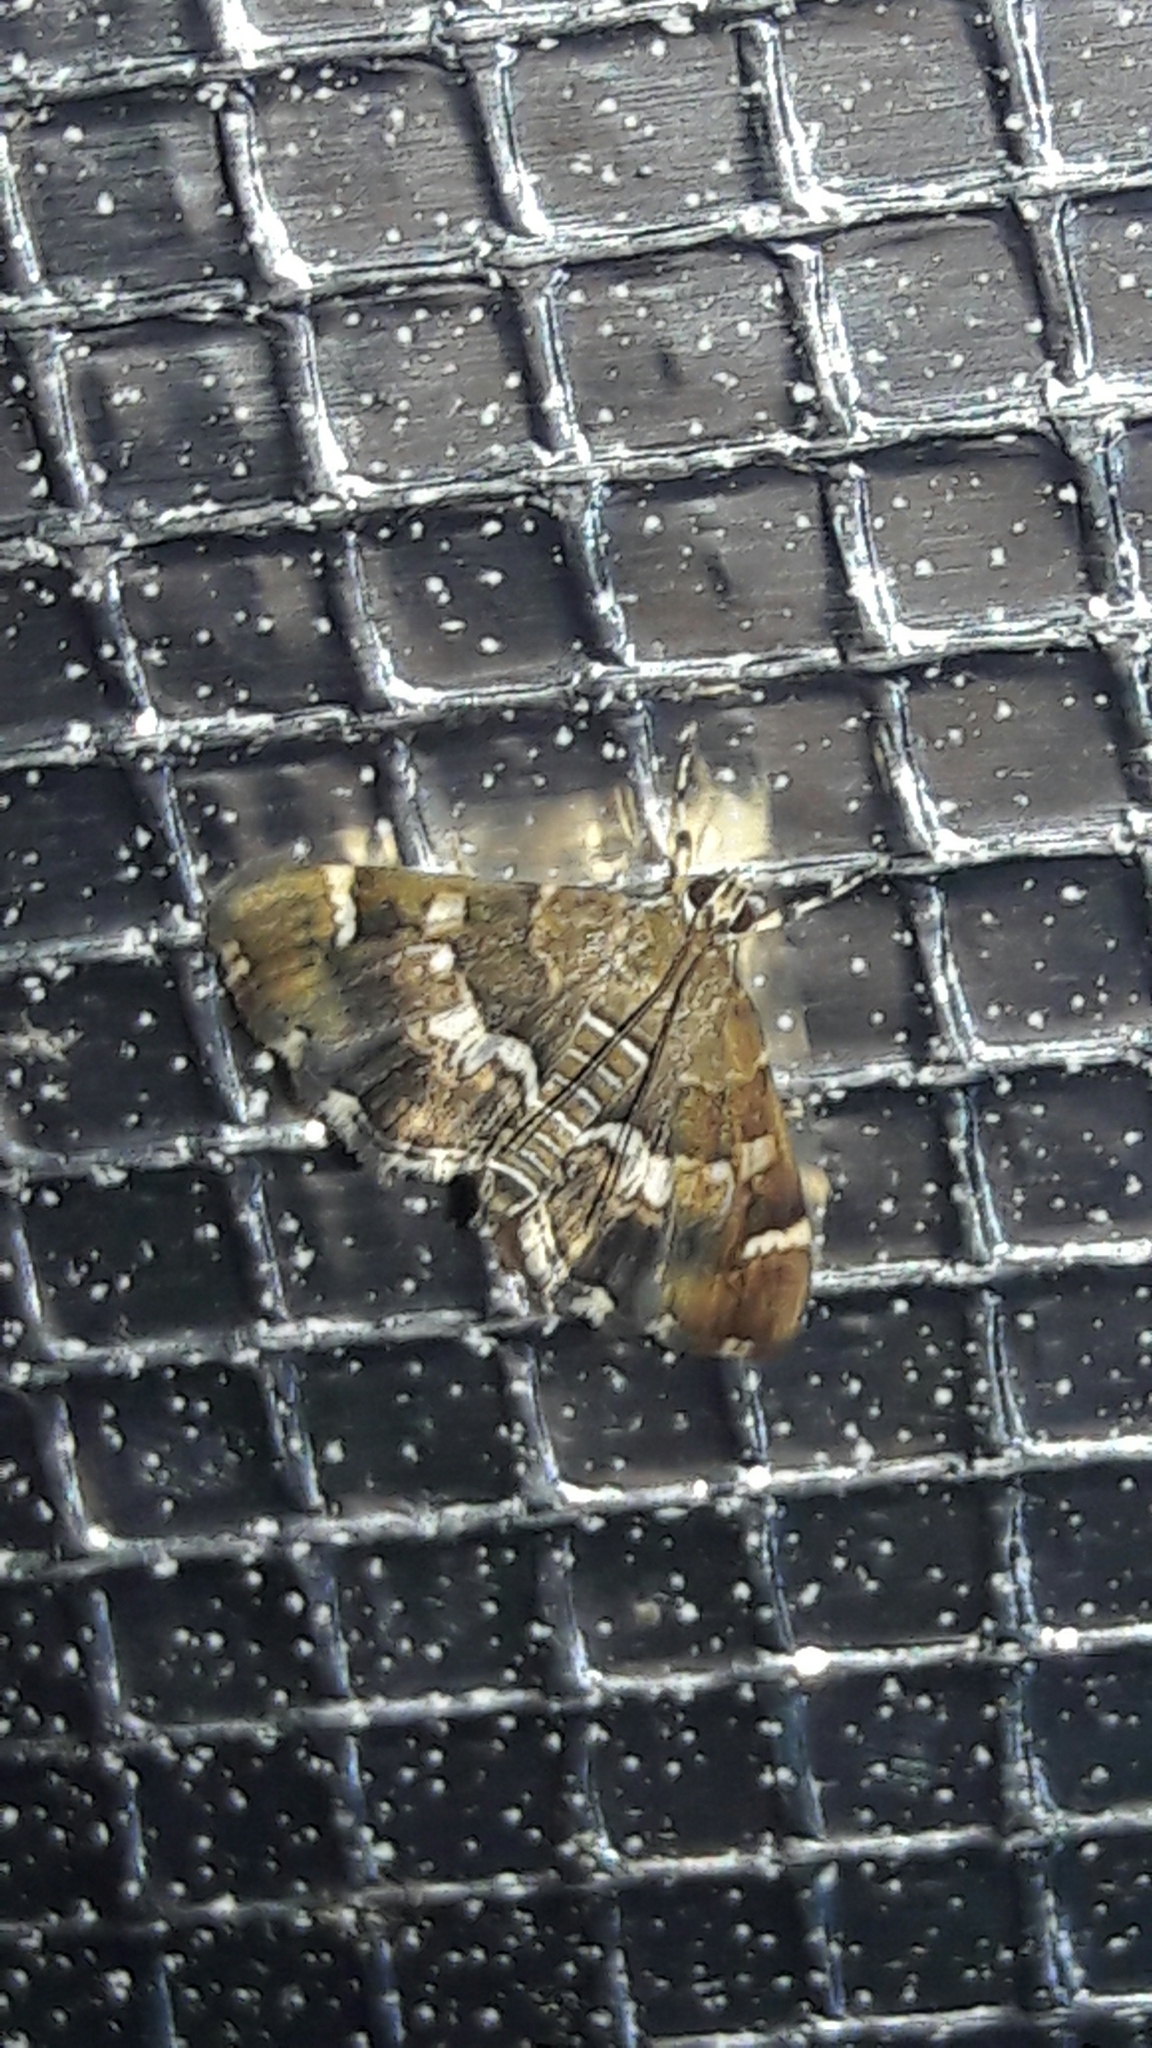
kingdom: Animalia
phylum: Arthropoda
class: Insecta
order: Lepidoptera
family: Crambidae
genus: Hymenia
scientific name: Hymenia perspectalis
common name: Spotted beet webworm
